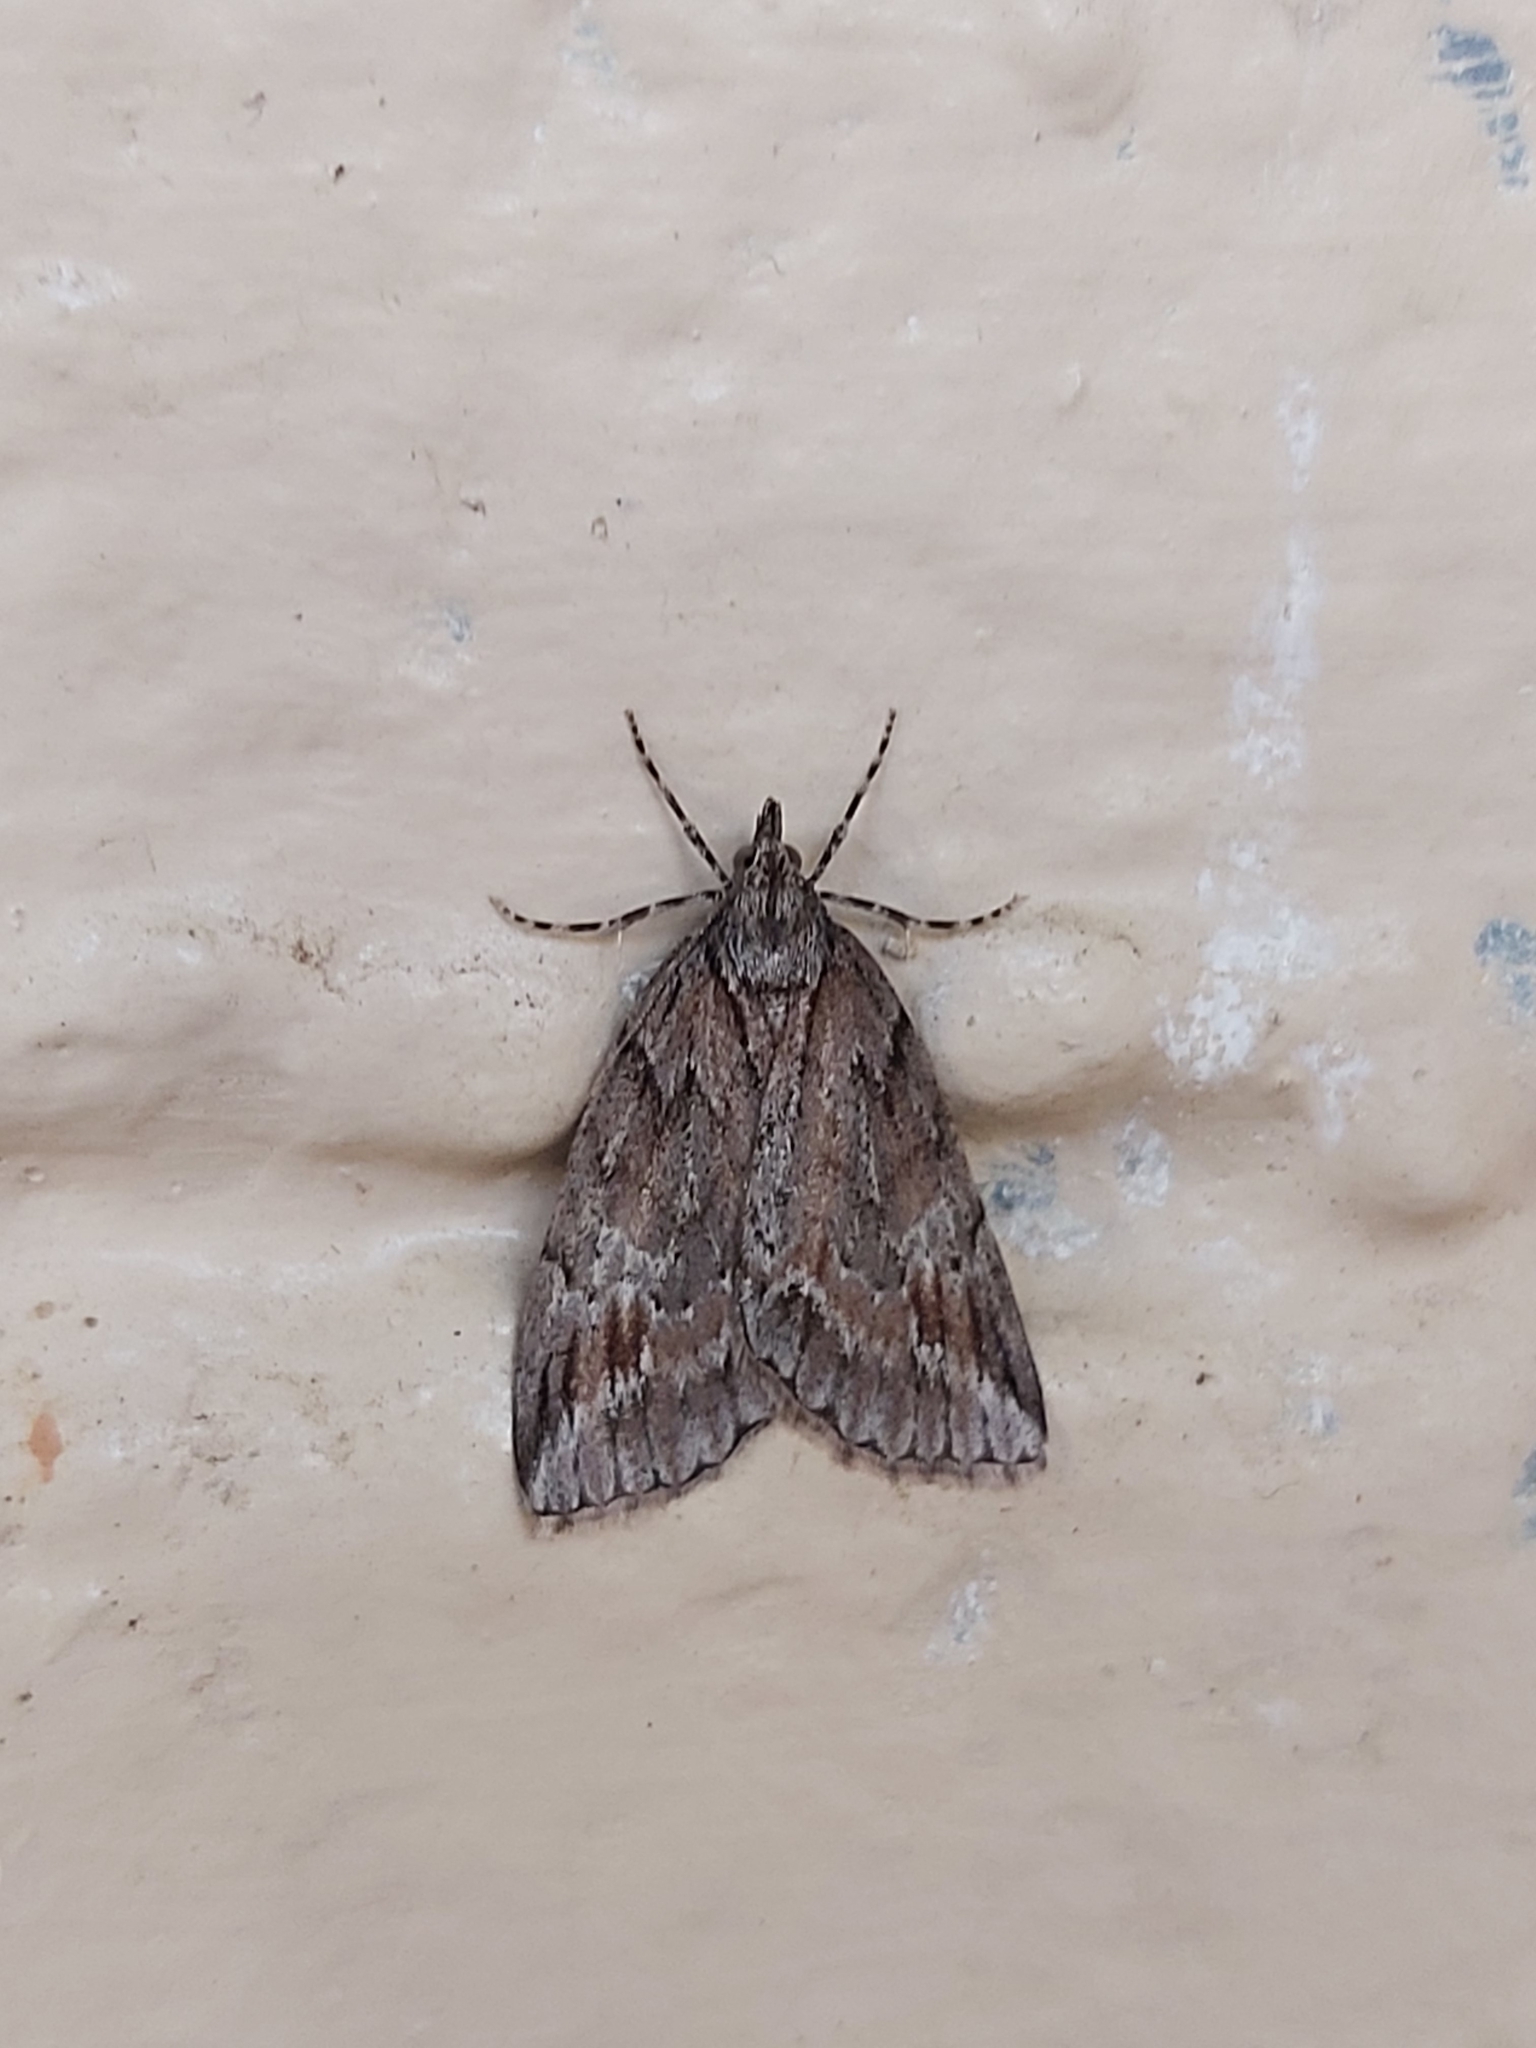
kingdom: Animalia
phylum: Arthropoda
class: Insecta
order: Lepidoptera
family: Geometridae
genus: Mictodoca
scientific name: Mictodoca toxeuta
